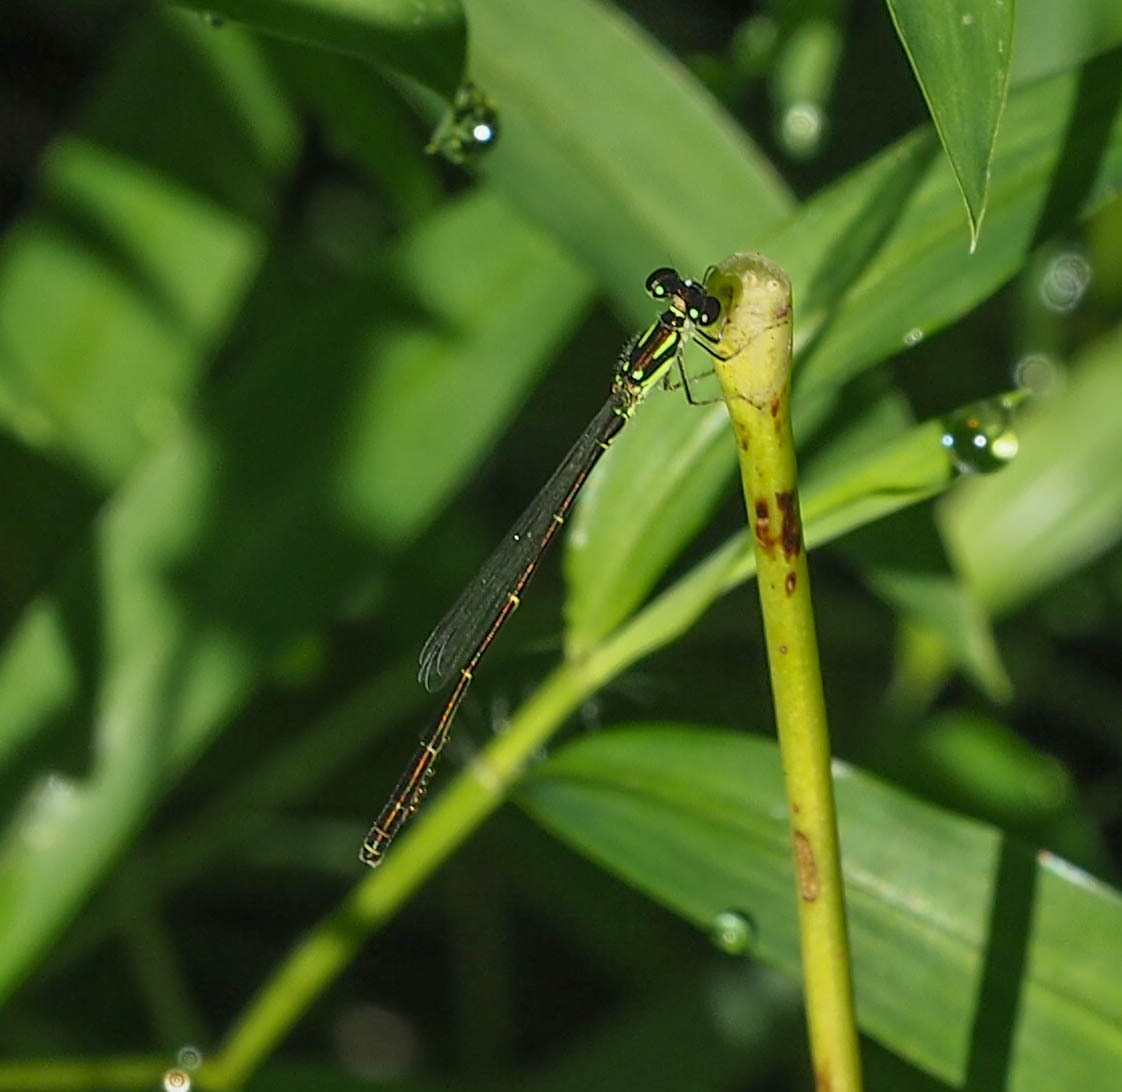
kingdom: Animalia
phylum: Arthropoda
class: Insecta
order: Odonata
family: Coenagrionidae
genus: Ischnura
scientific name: Ischnura posita
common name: Fragile forktail
